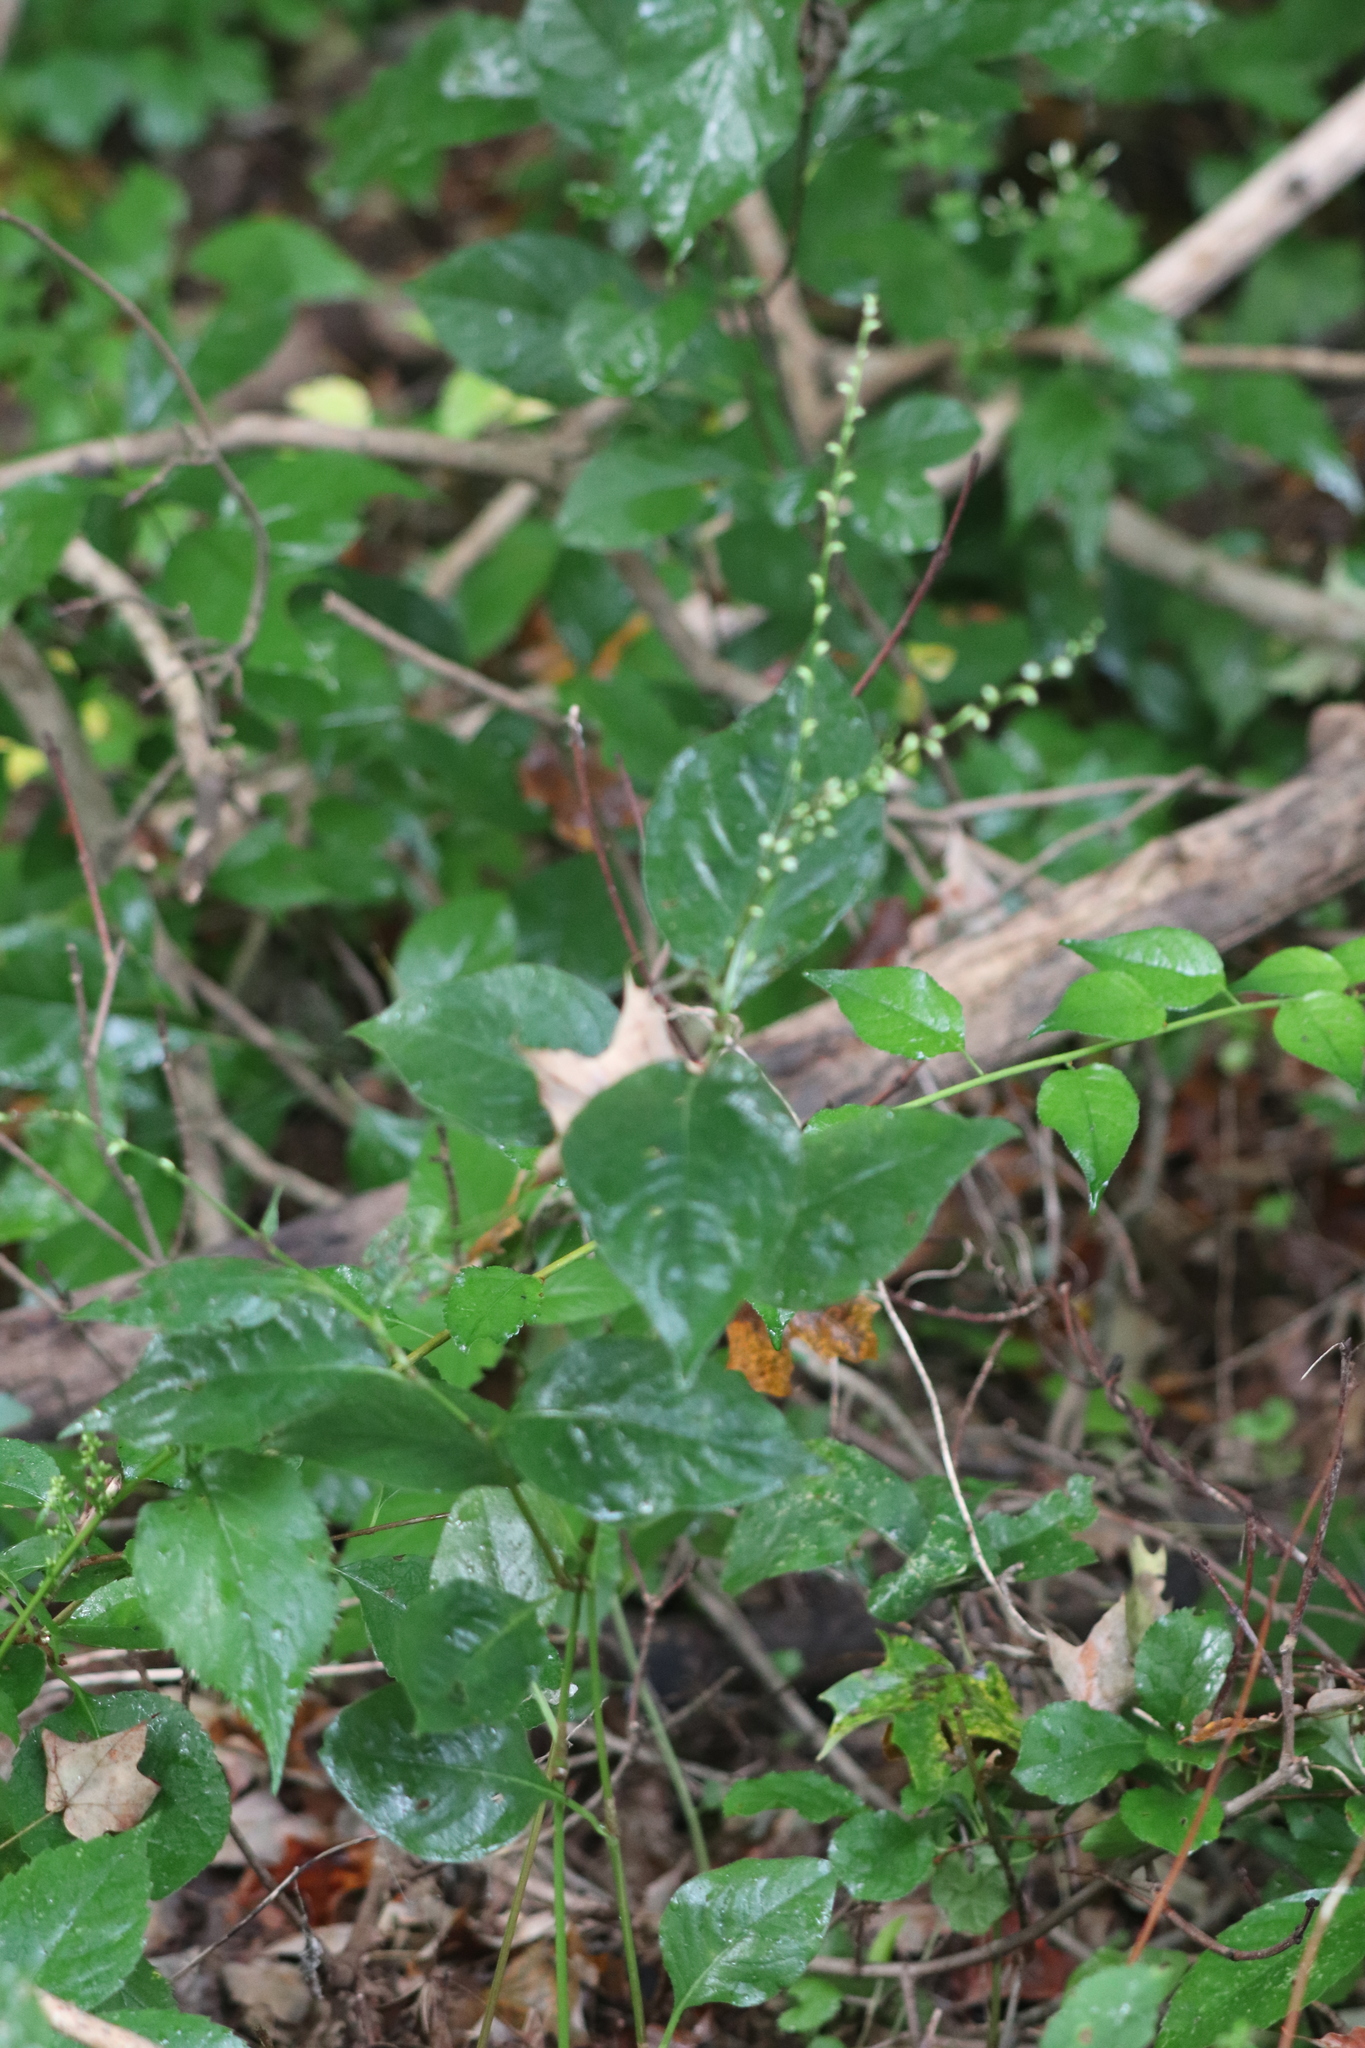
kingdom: Plantae
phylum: Tracheophyta
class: Magnoliopsida
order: Caryophyllales
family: Polygonaceae
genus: Persicaria
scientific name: Persicaria virginiana
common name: Jumpseed
